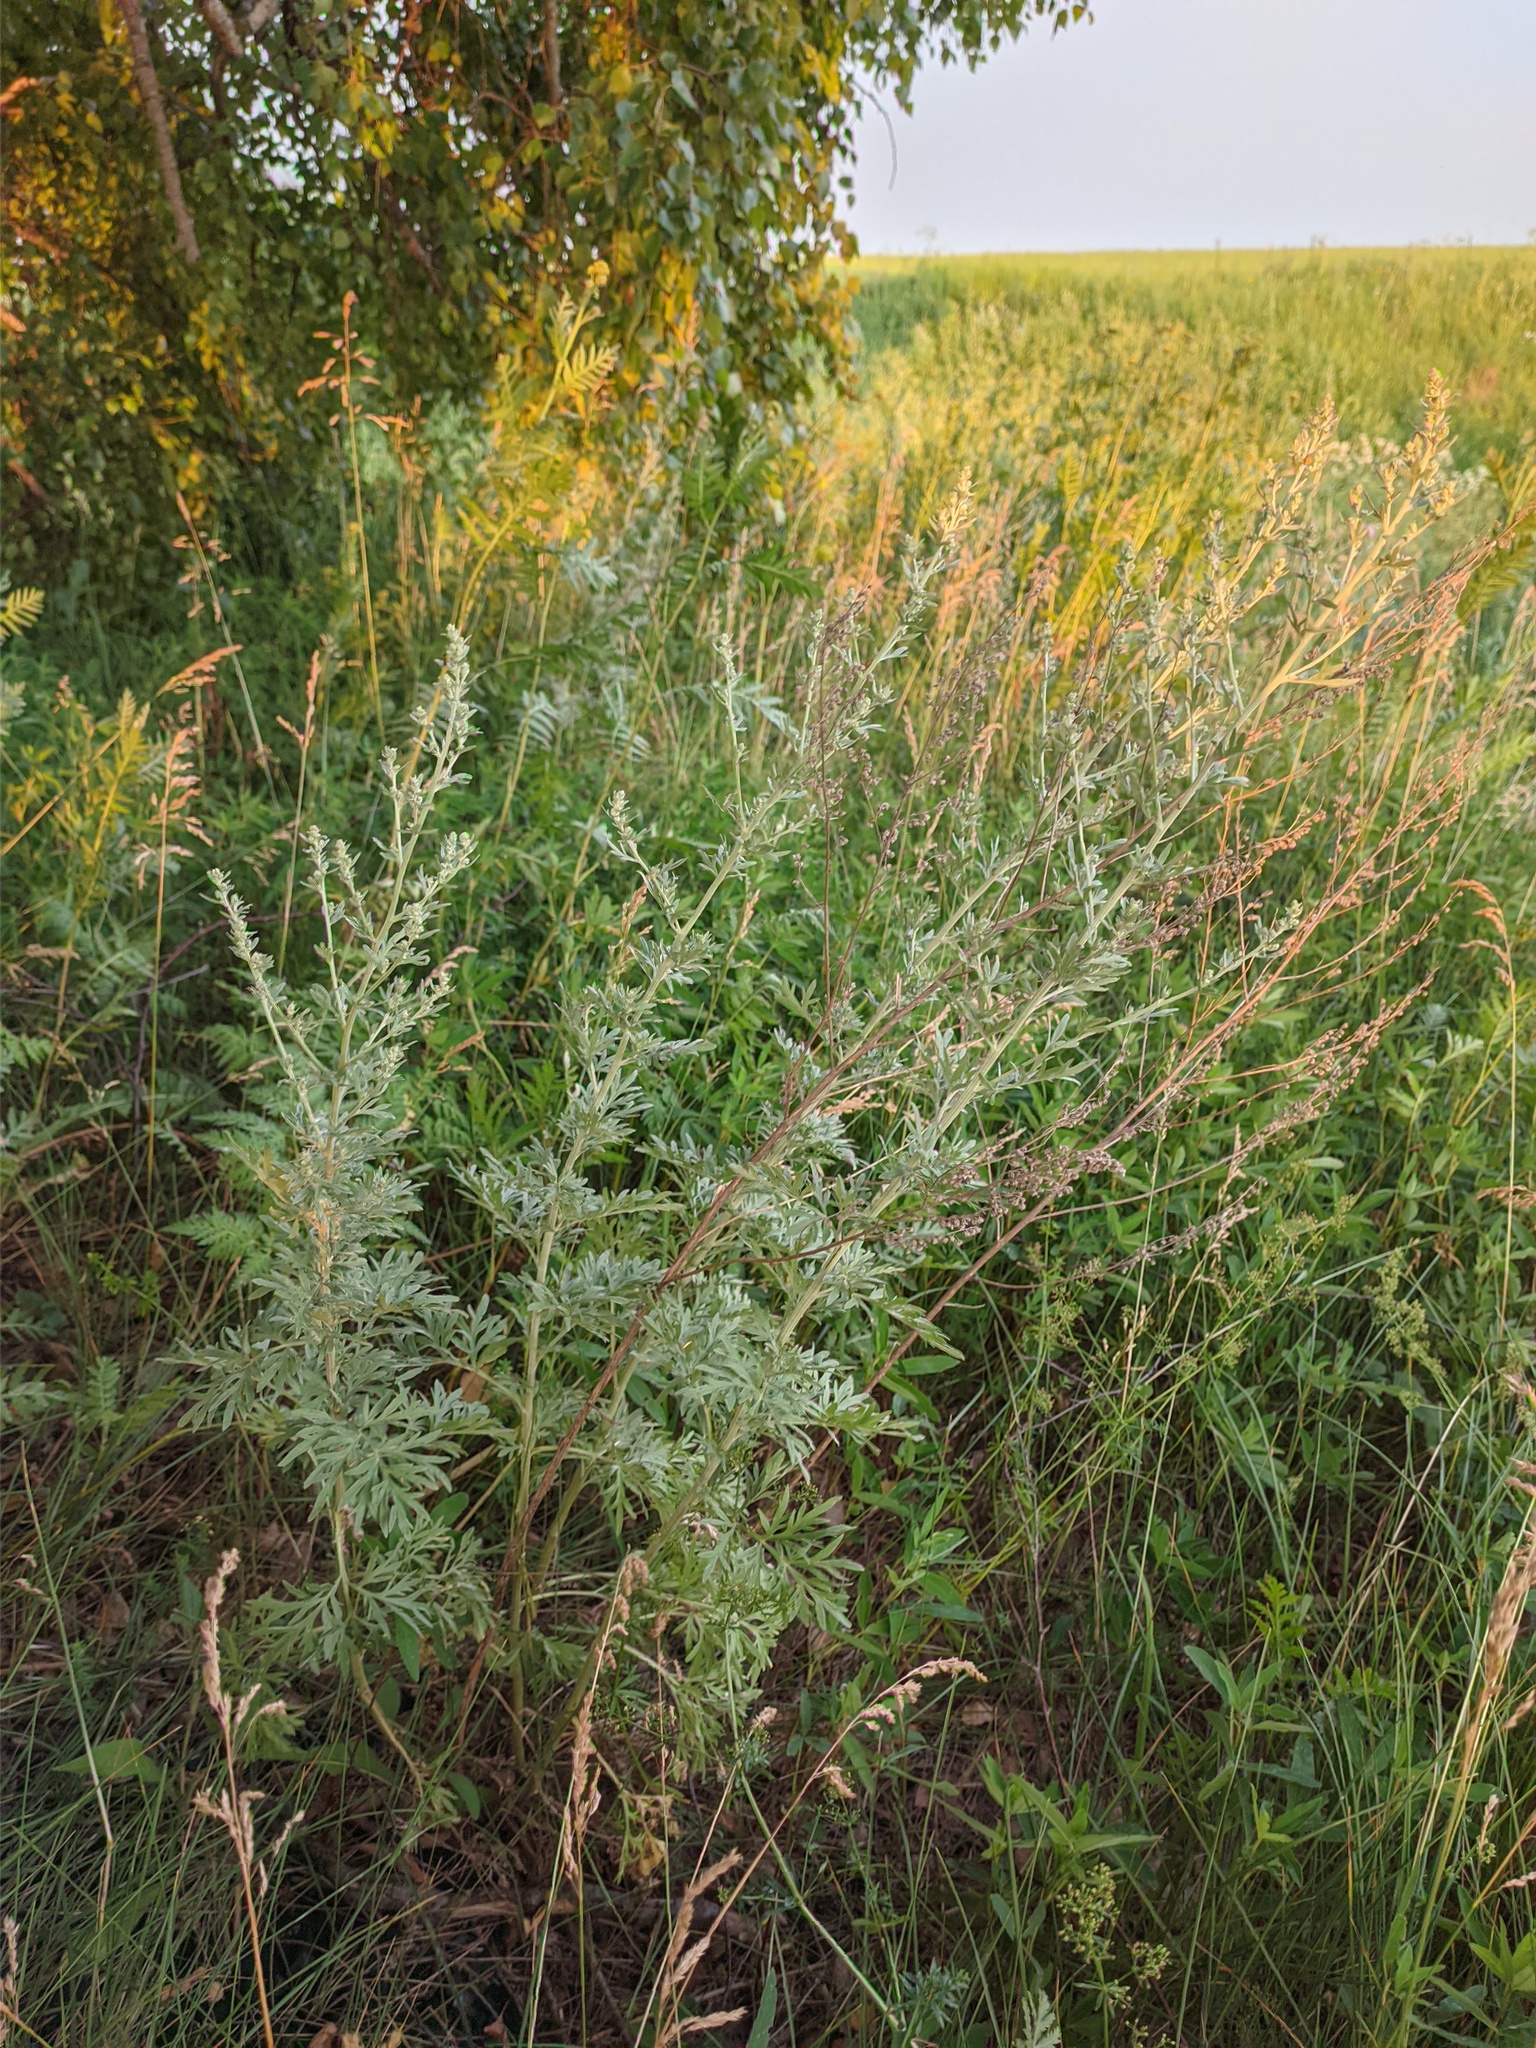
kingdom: Plantae
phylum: Tracheophyta
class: Magnoliopsida
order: Asterales
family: Asteraceae
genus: Artemisia
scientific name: Artemisia absinthium
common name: Wormwood
